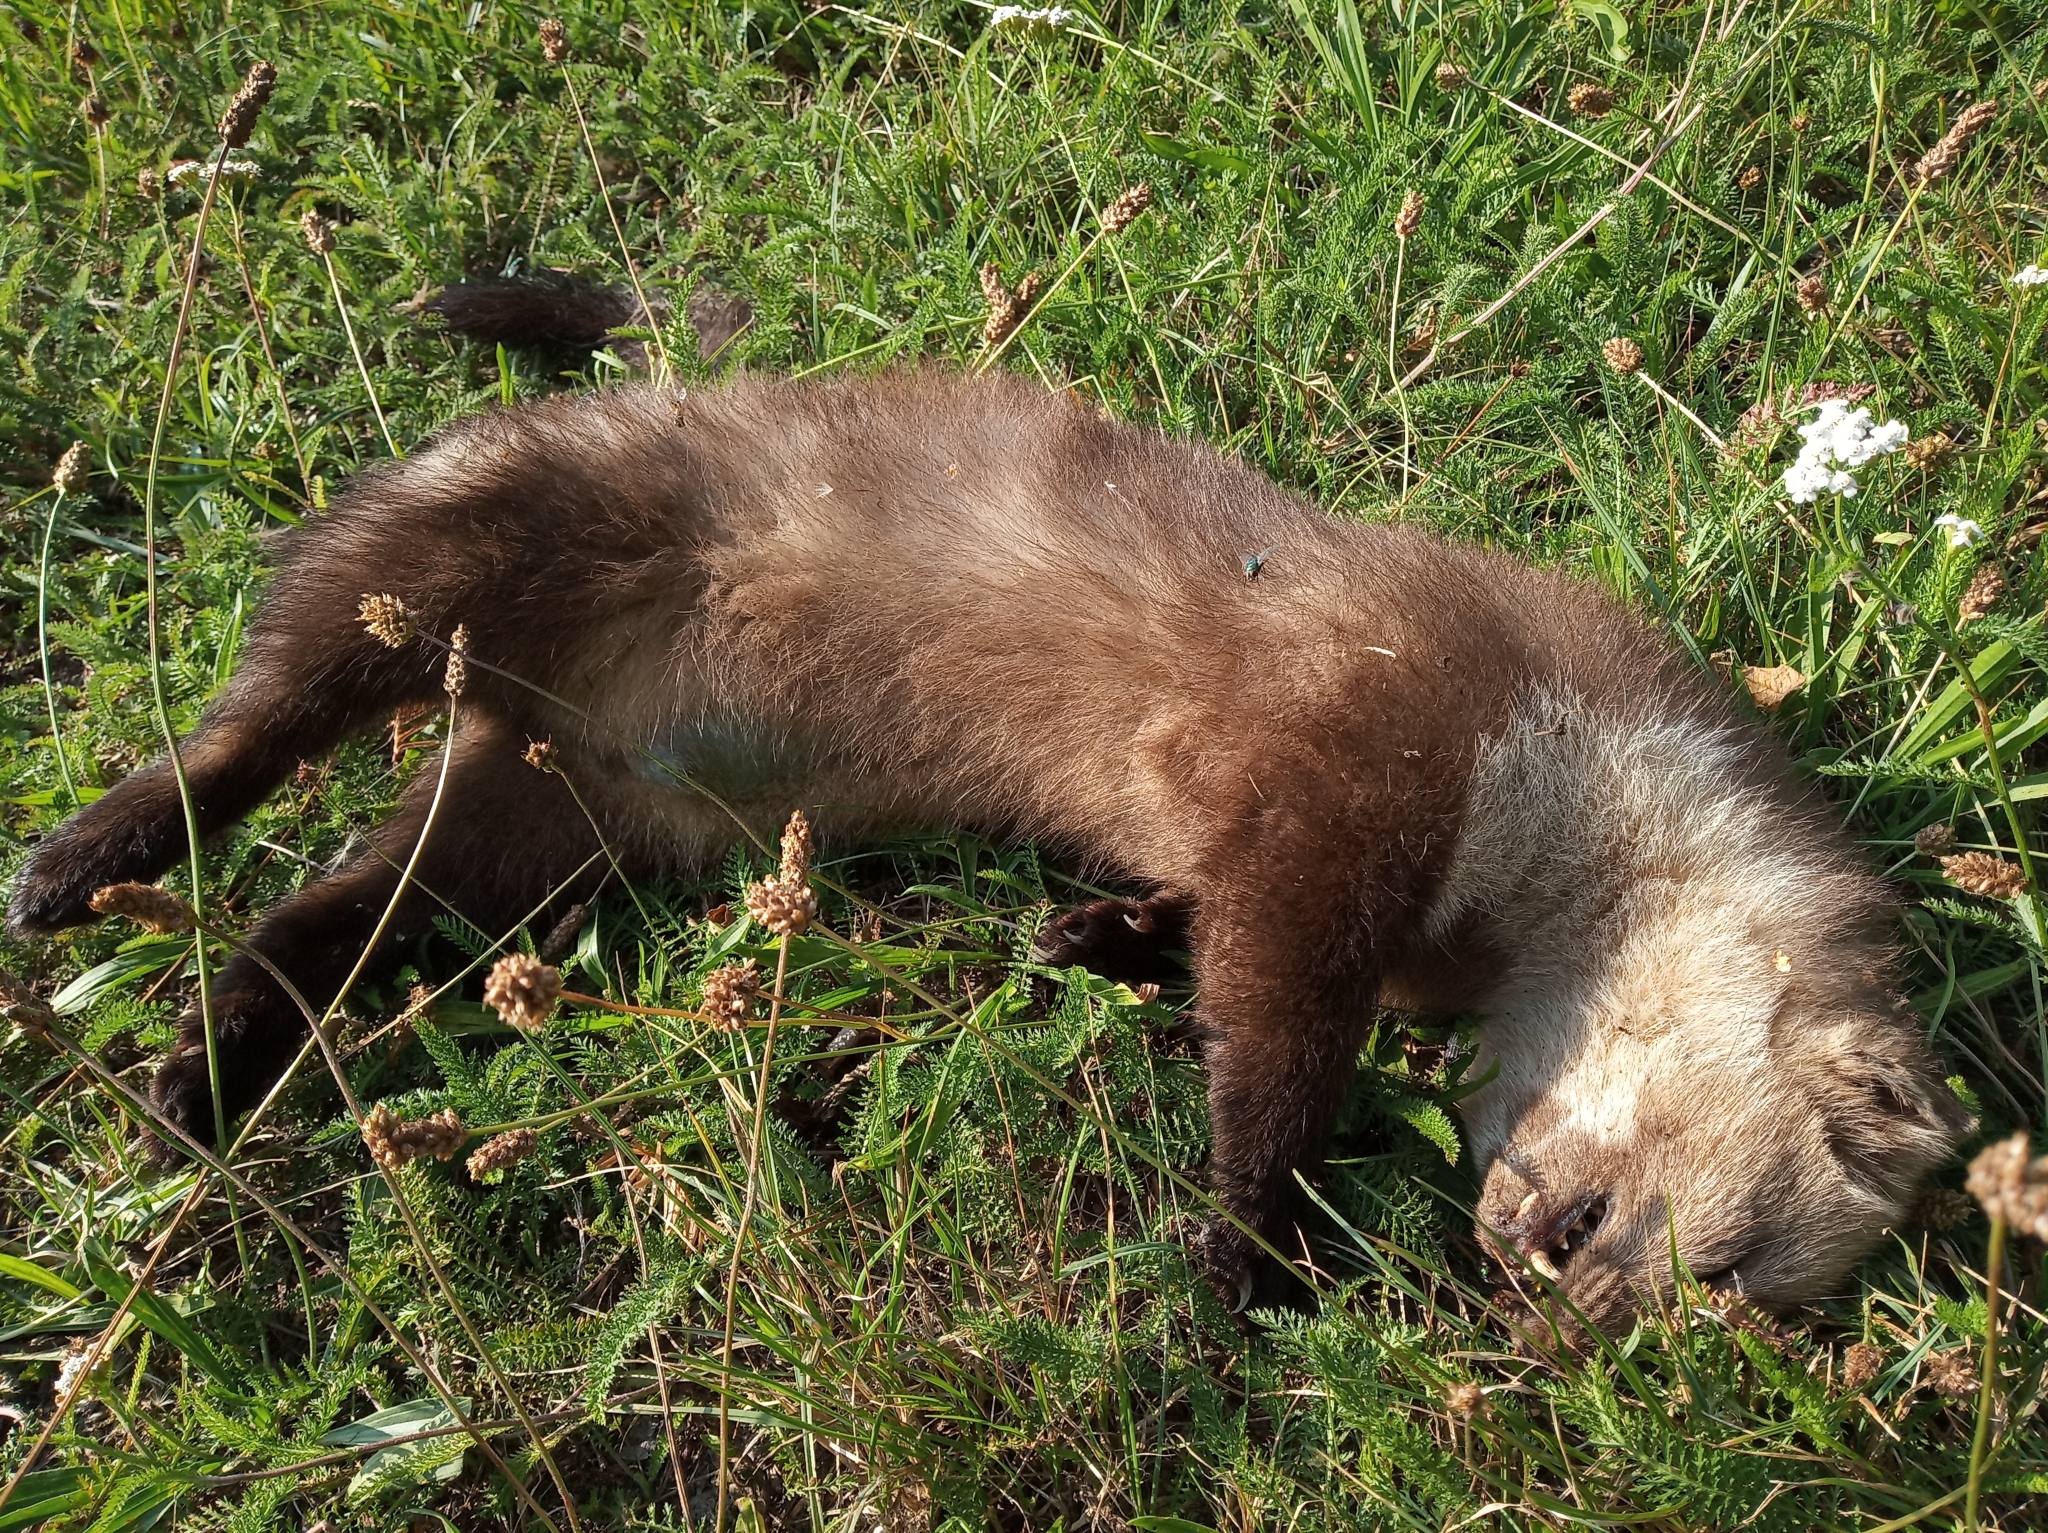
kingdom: Animalia
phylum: Chordata
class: Mammalia
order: Carnivora
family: Mustelidae
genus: Martes
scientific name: Martes foina
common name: Beech marten
